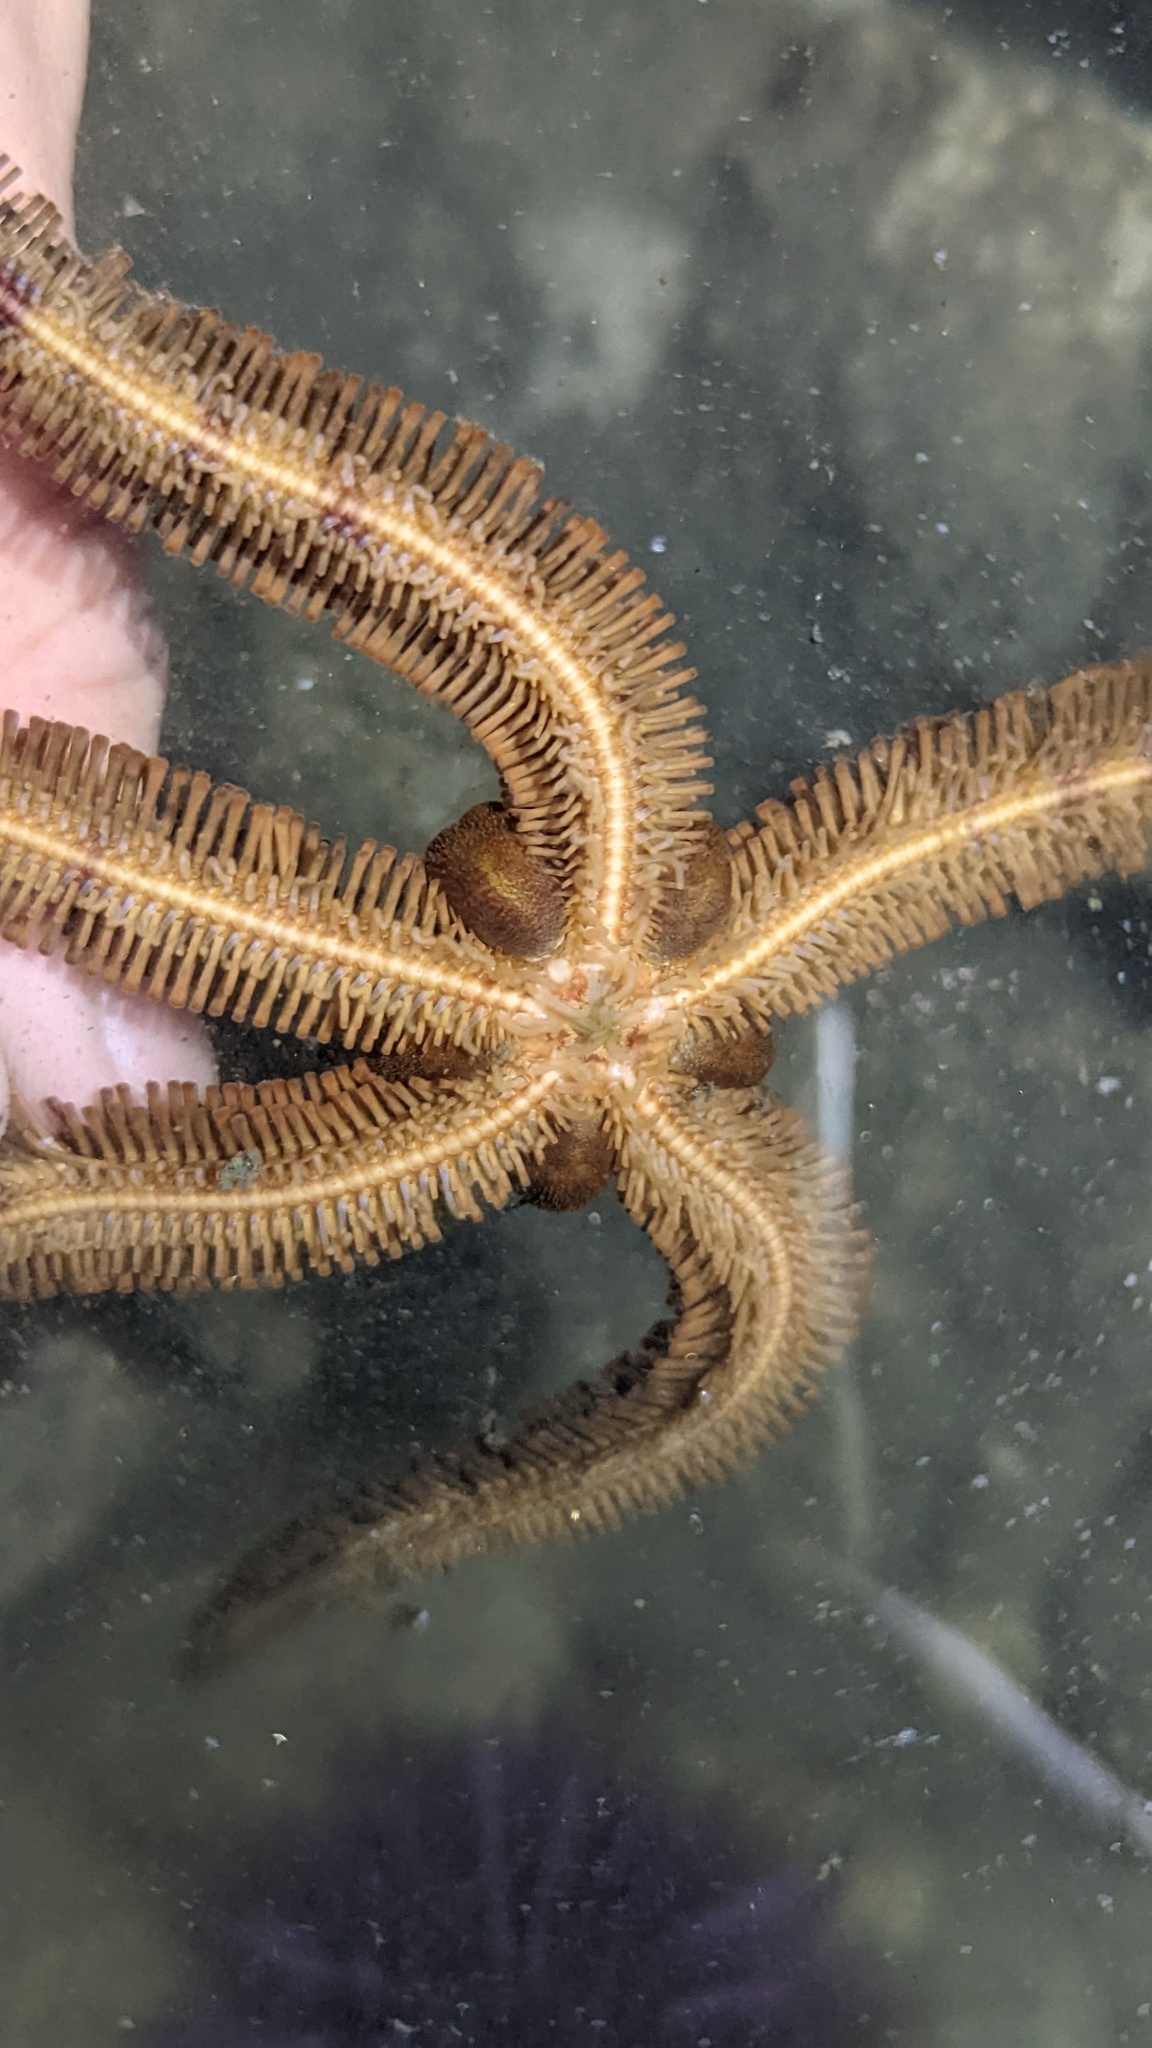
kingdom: Animalia
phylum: Echinodermata
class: Ophiuroidea
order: Ophiacanthida
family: Ophiopteridae
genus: Ophiopteris
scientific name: Ophiopteris papillosa
